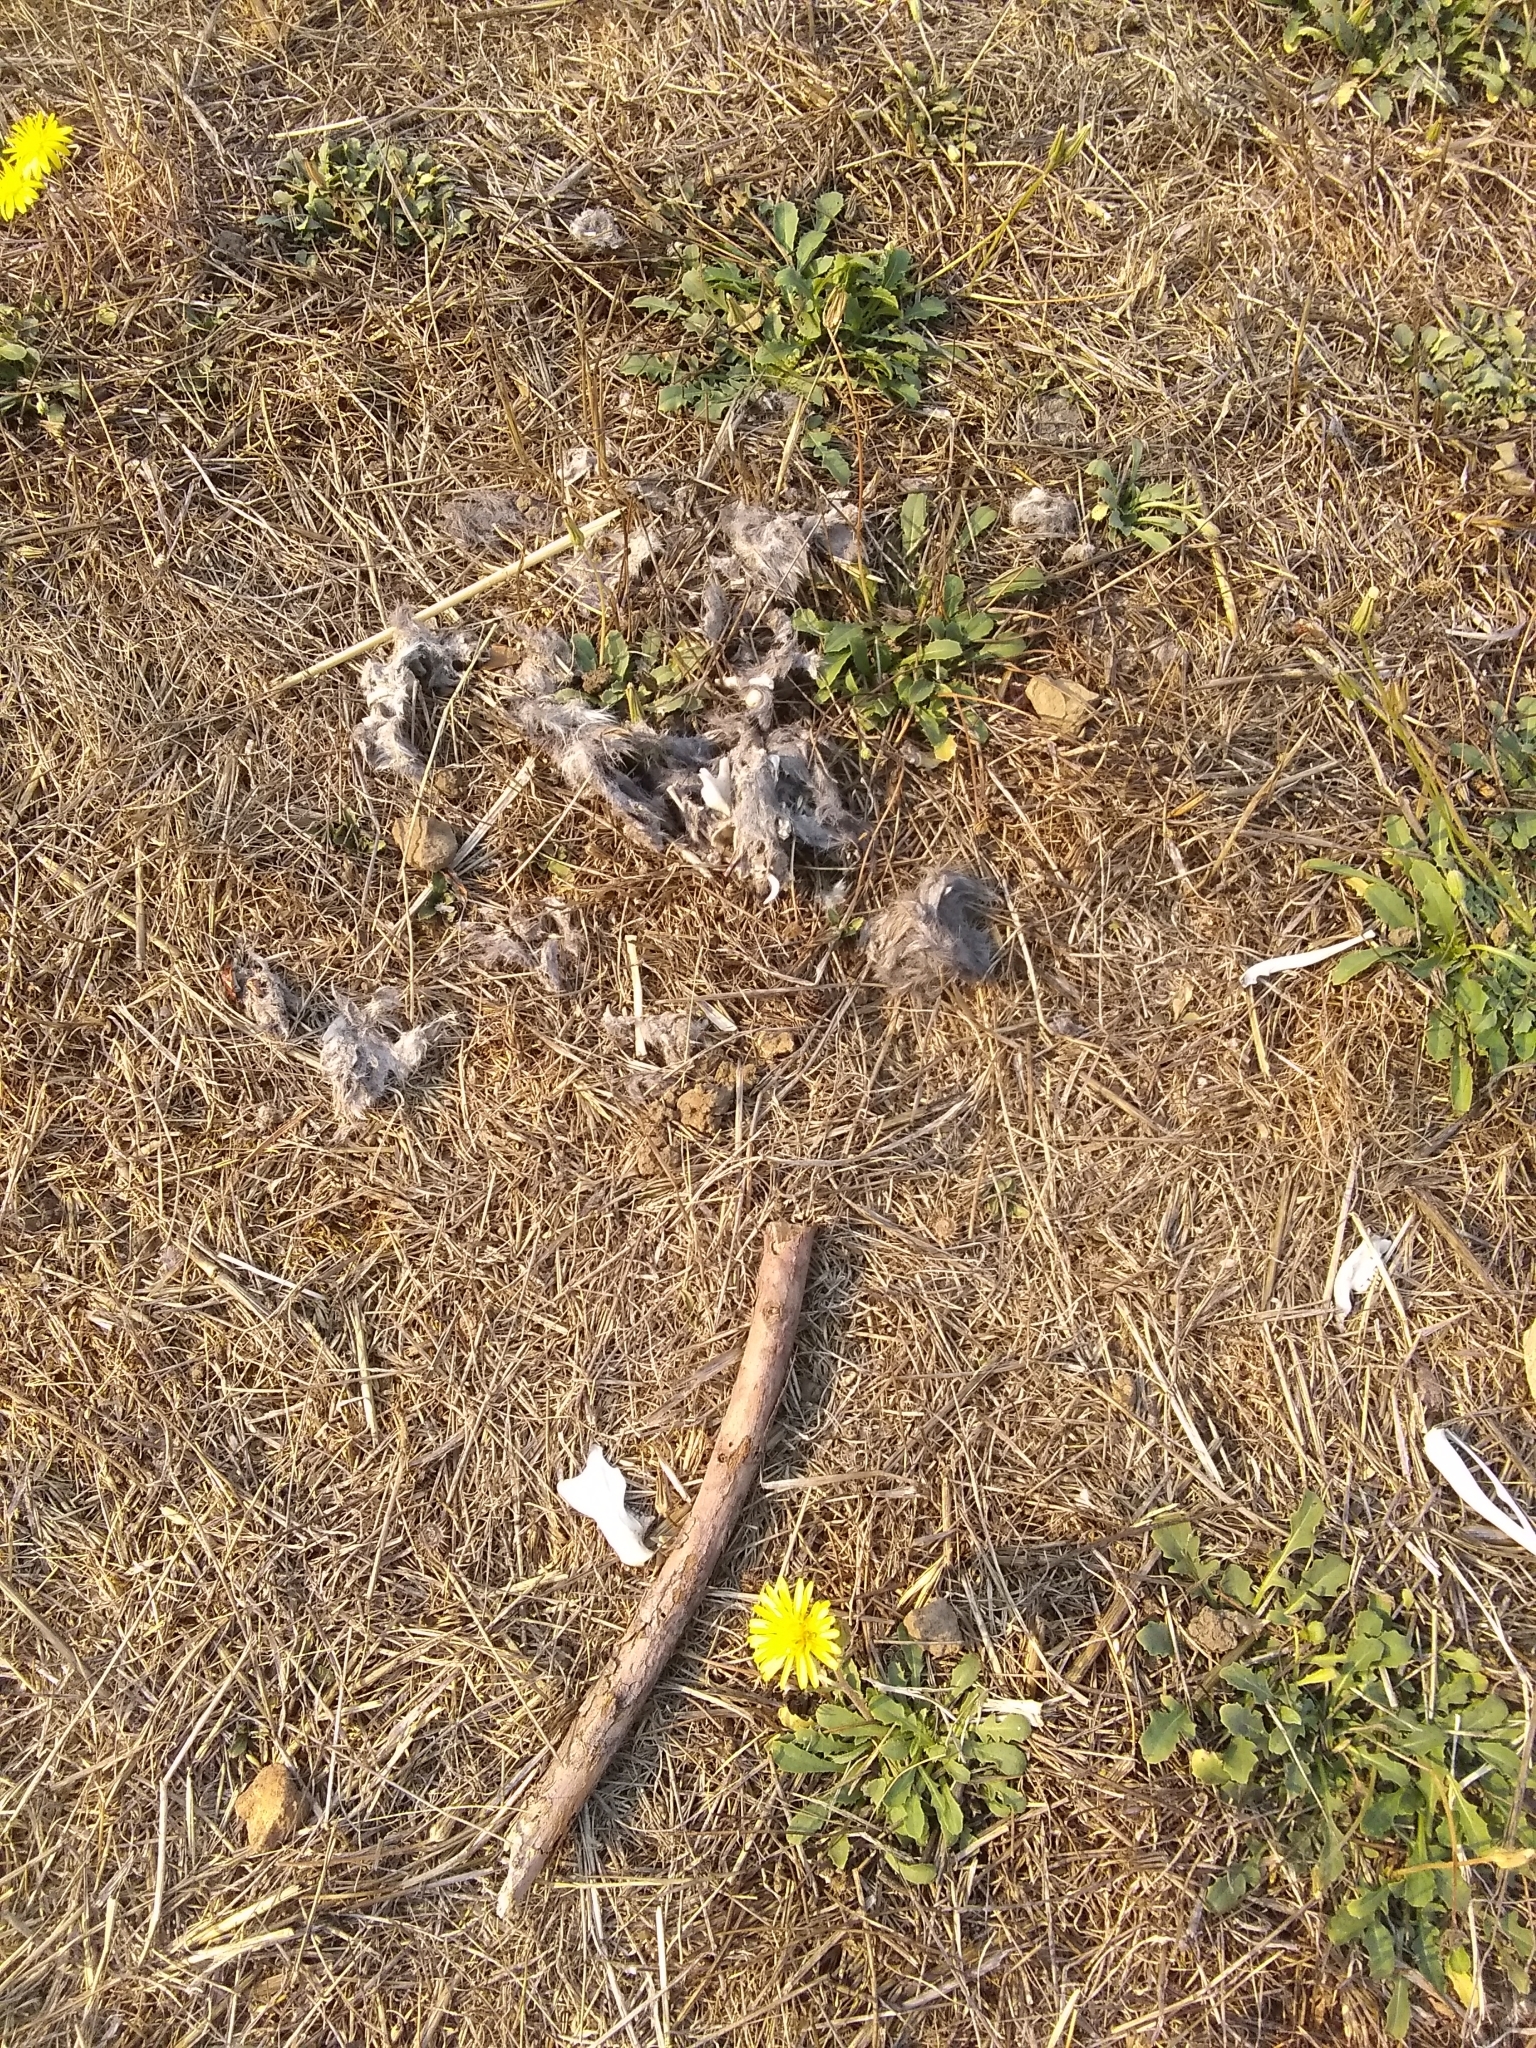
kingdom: Animalia
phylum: Chordata
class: Mammalia
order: Rodentia
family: Cricetidae
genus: Neotoma
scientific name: Neotoma fuscipes
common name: Dusky-footed woodrat
